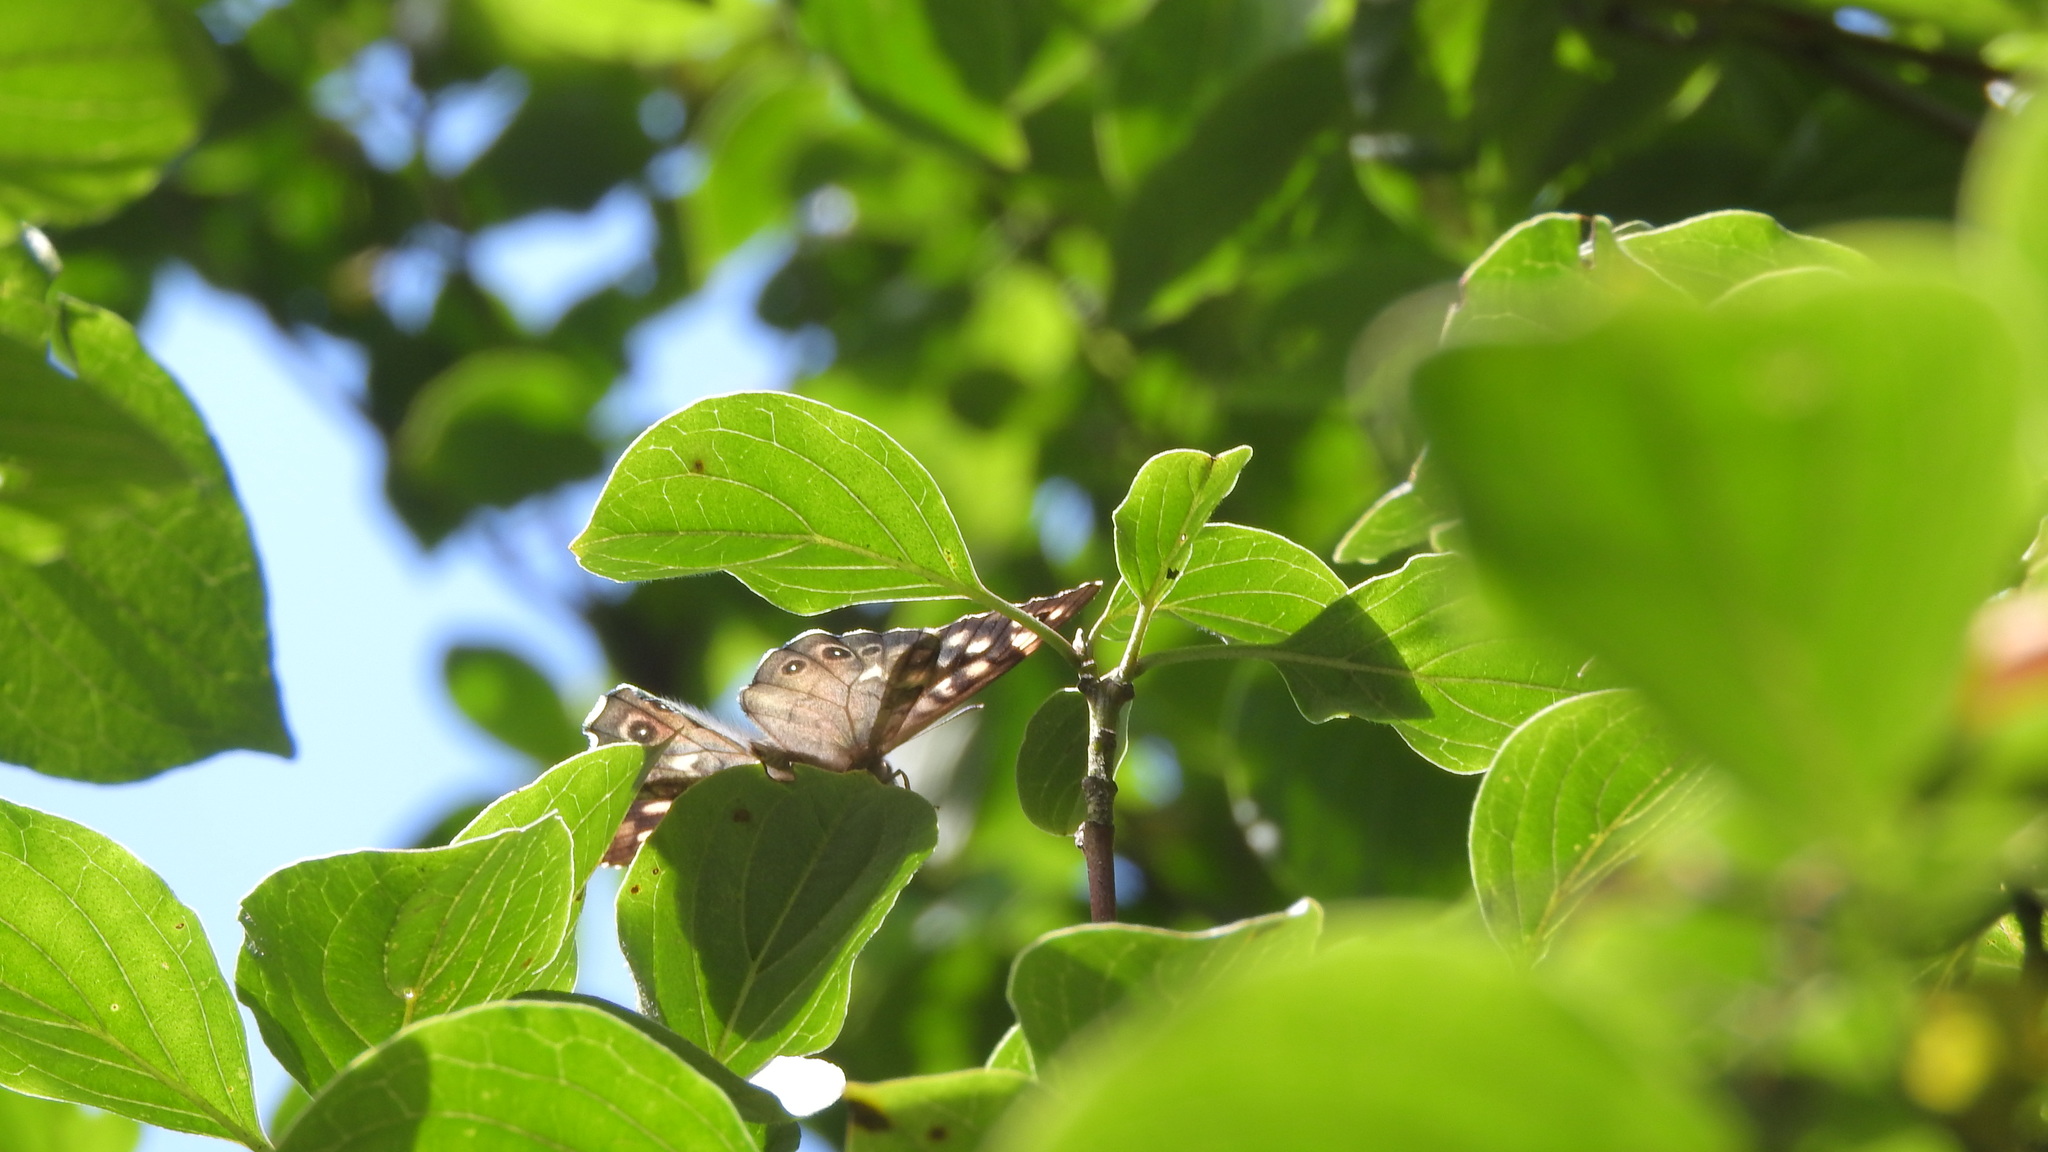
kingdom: Animalia
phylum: Arthropoda
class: Insecta
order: Lepidoptera
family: Nymphalidae
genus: Pararge
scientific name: Pararge aegeria
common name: Speckled wood
